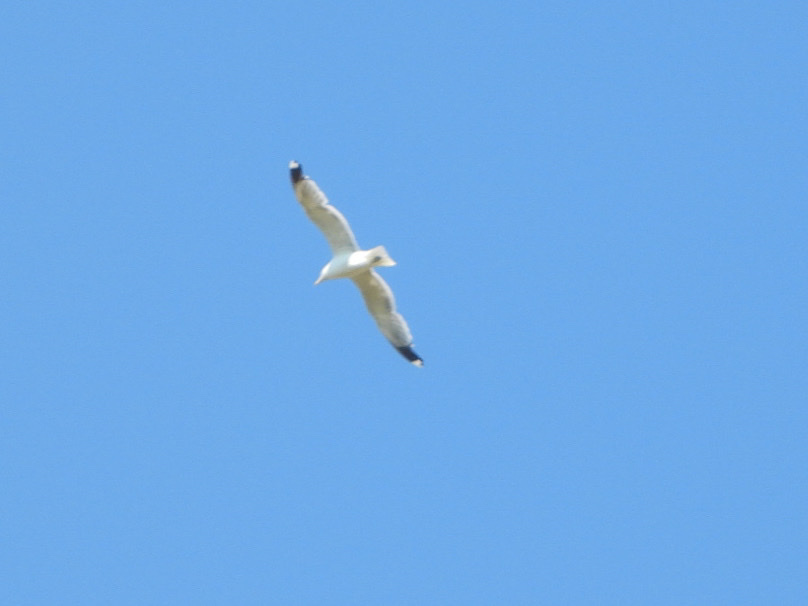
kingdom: Animalia
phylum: Chordata
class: Aves
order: Charadriiformes
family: Laridae
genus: Larus
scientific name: Larus californicus
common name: California gull
